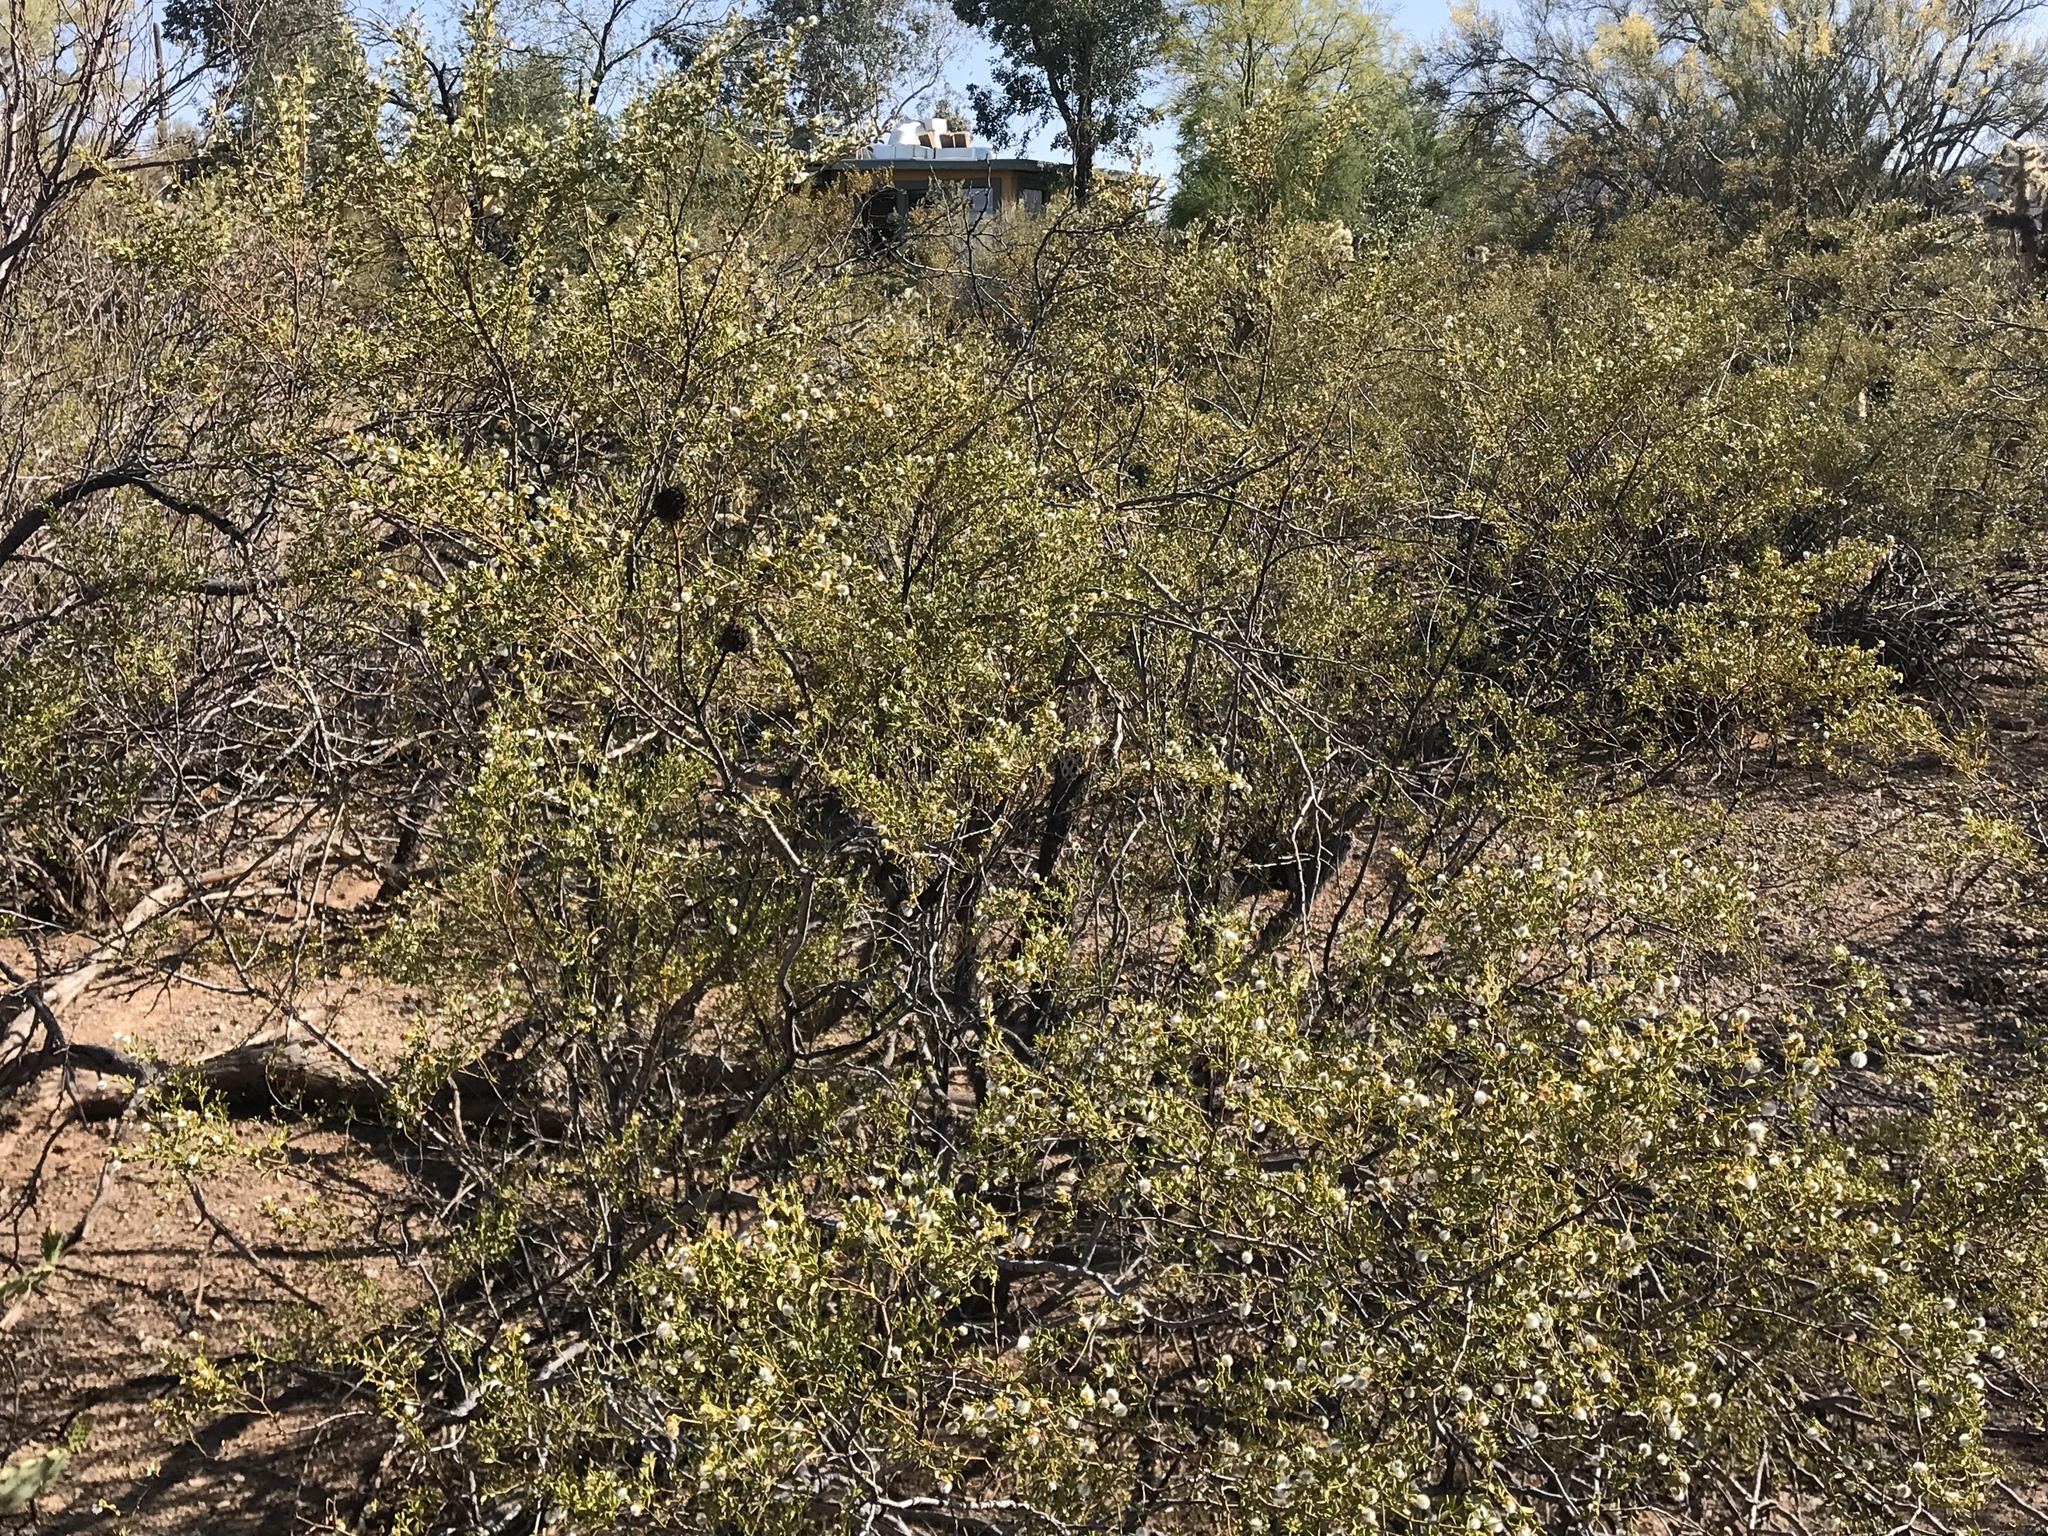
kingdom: Plantae
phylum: Tracheophyta
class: Magnoliopsida
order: Zygophyllales
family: Zygophyllaceae
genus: Larrea
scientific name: Larrea tridentata
